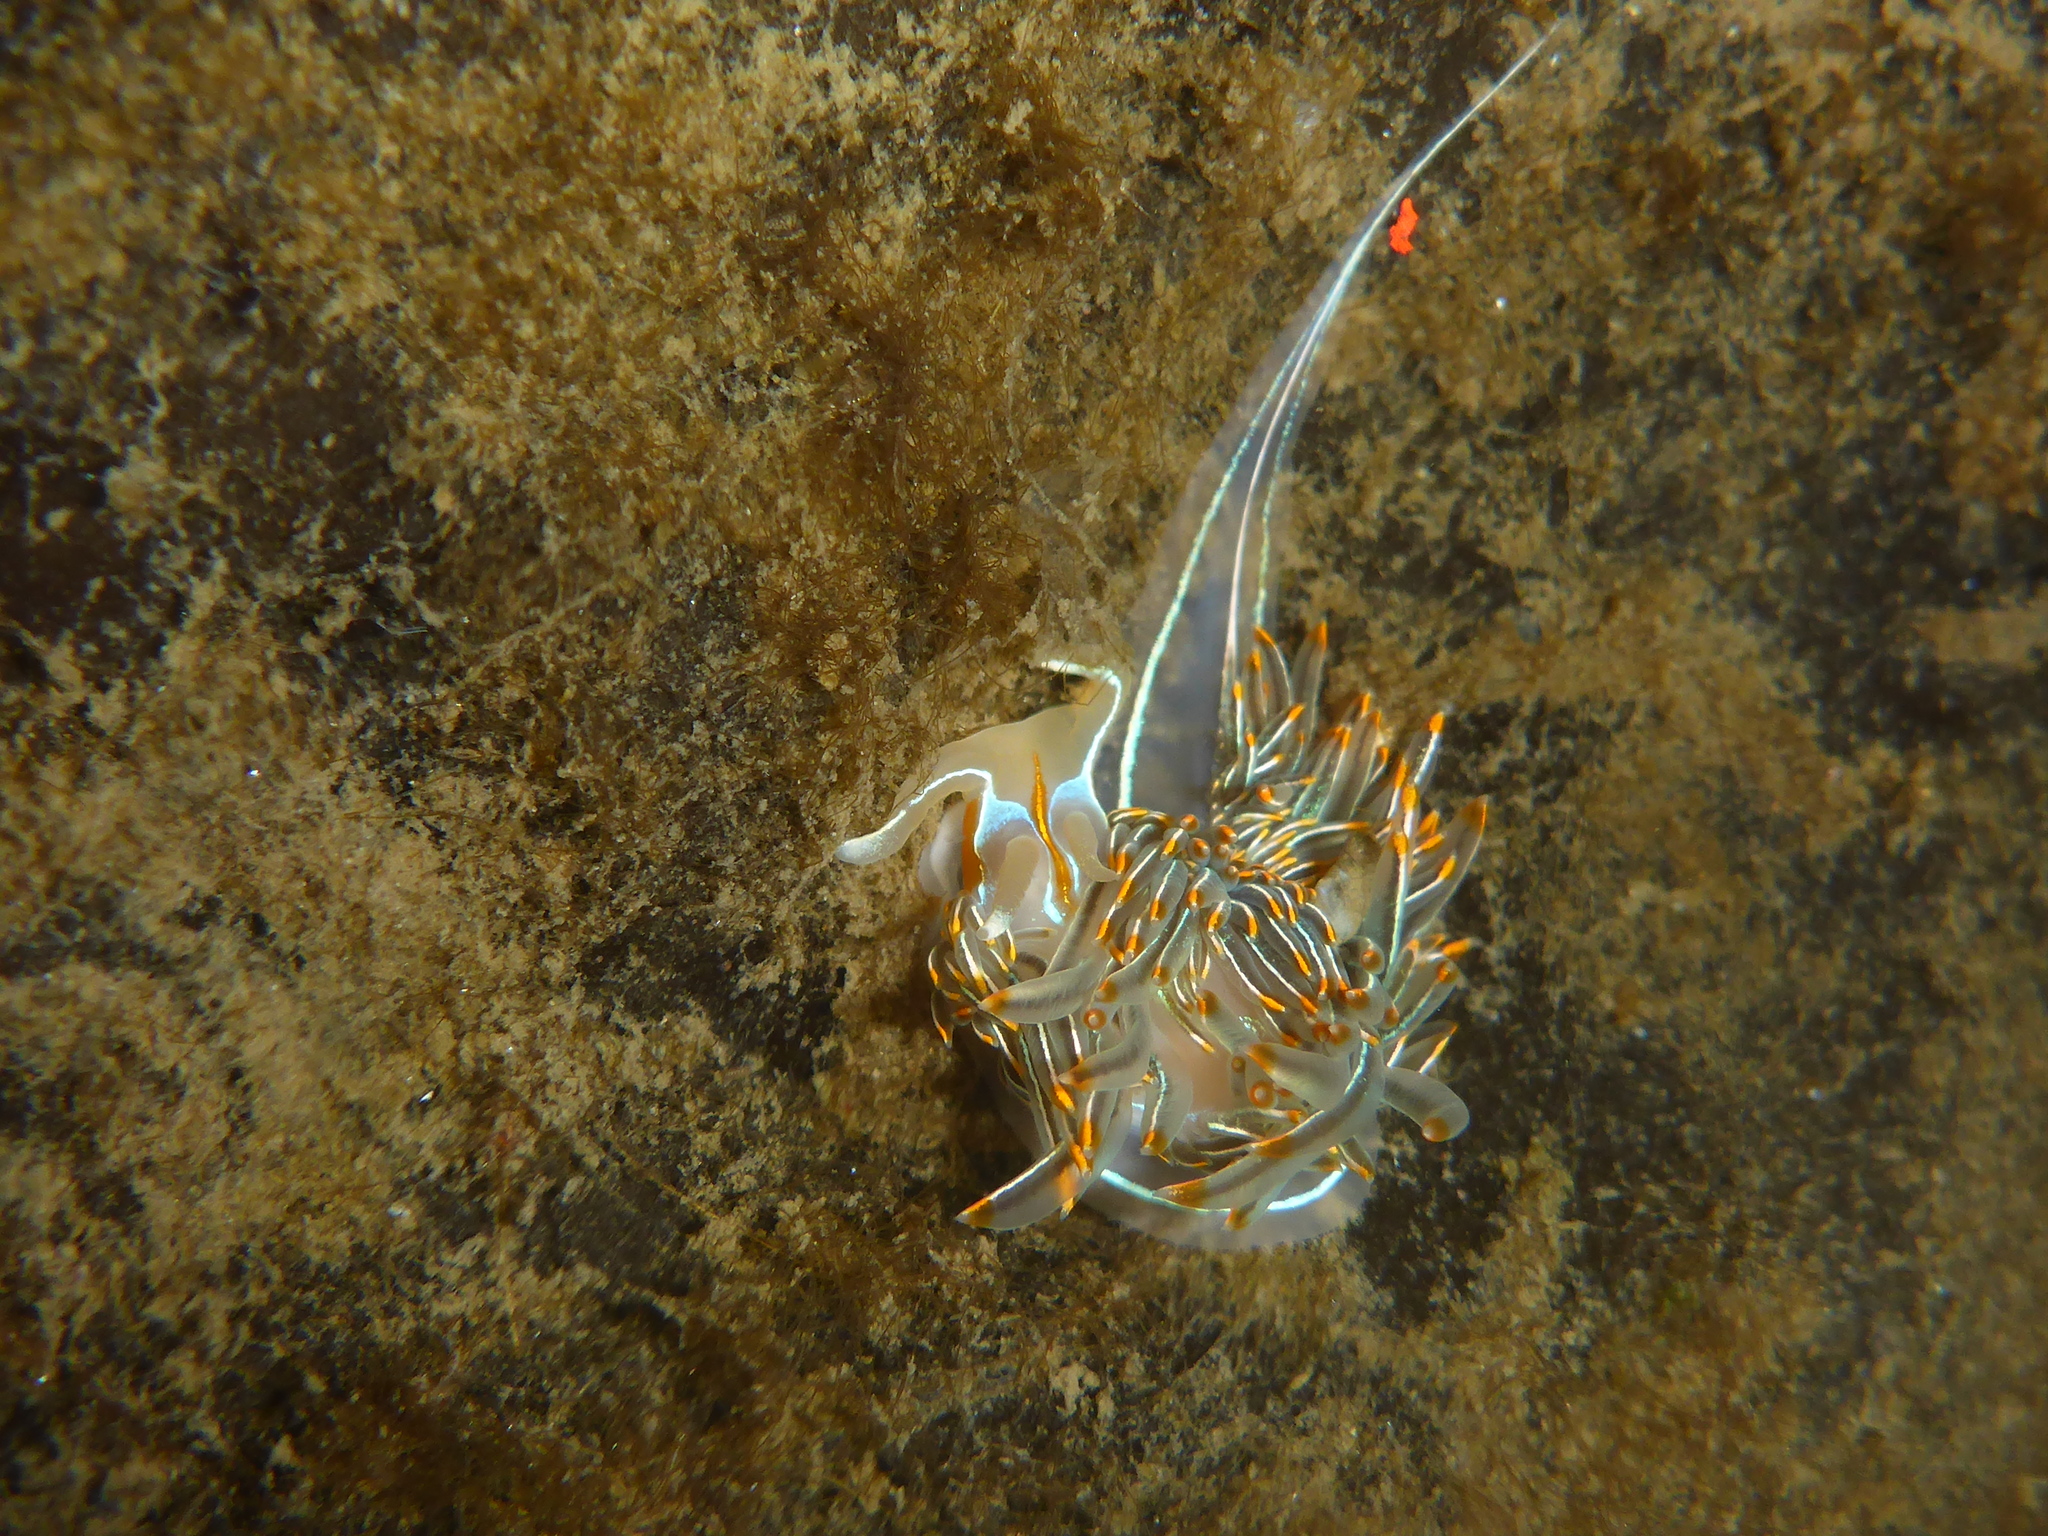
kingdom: Animalia
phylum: Mollusca
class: Gastropoda
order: Nudibranchia
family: Myrrhinidae
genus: Hermissenda
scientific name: Hermissenda crassicornis
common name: Hermissenda
